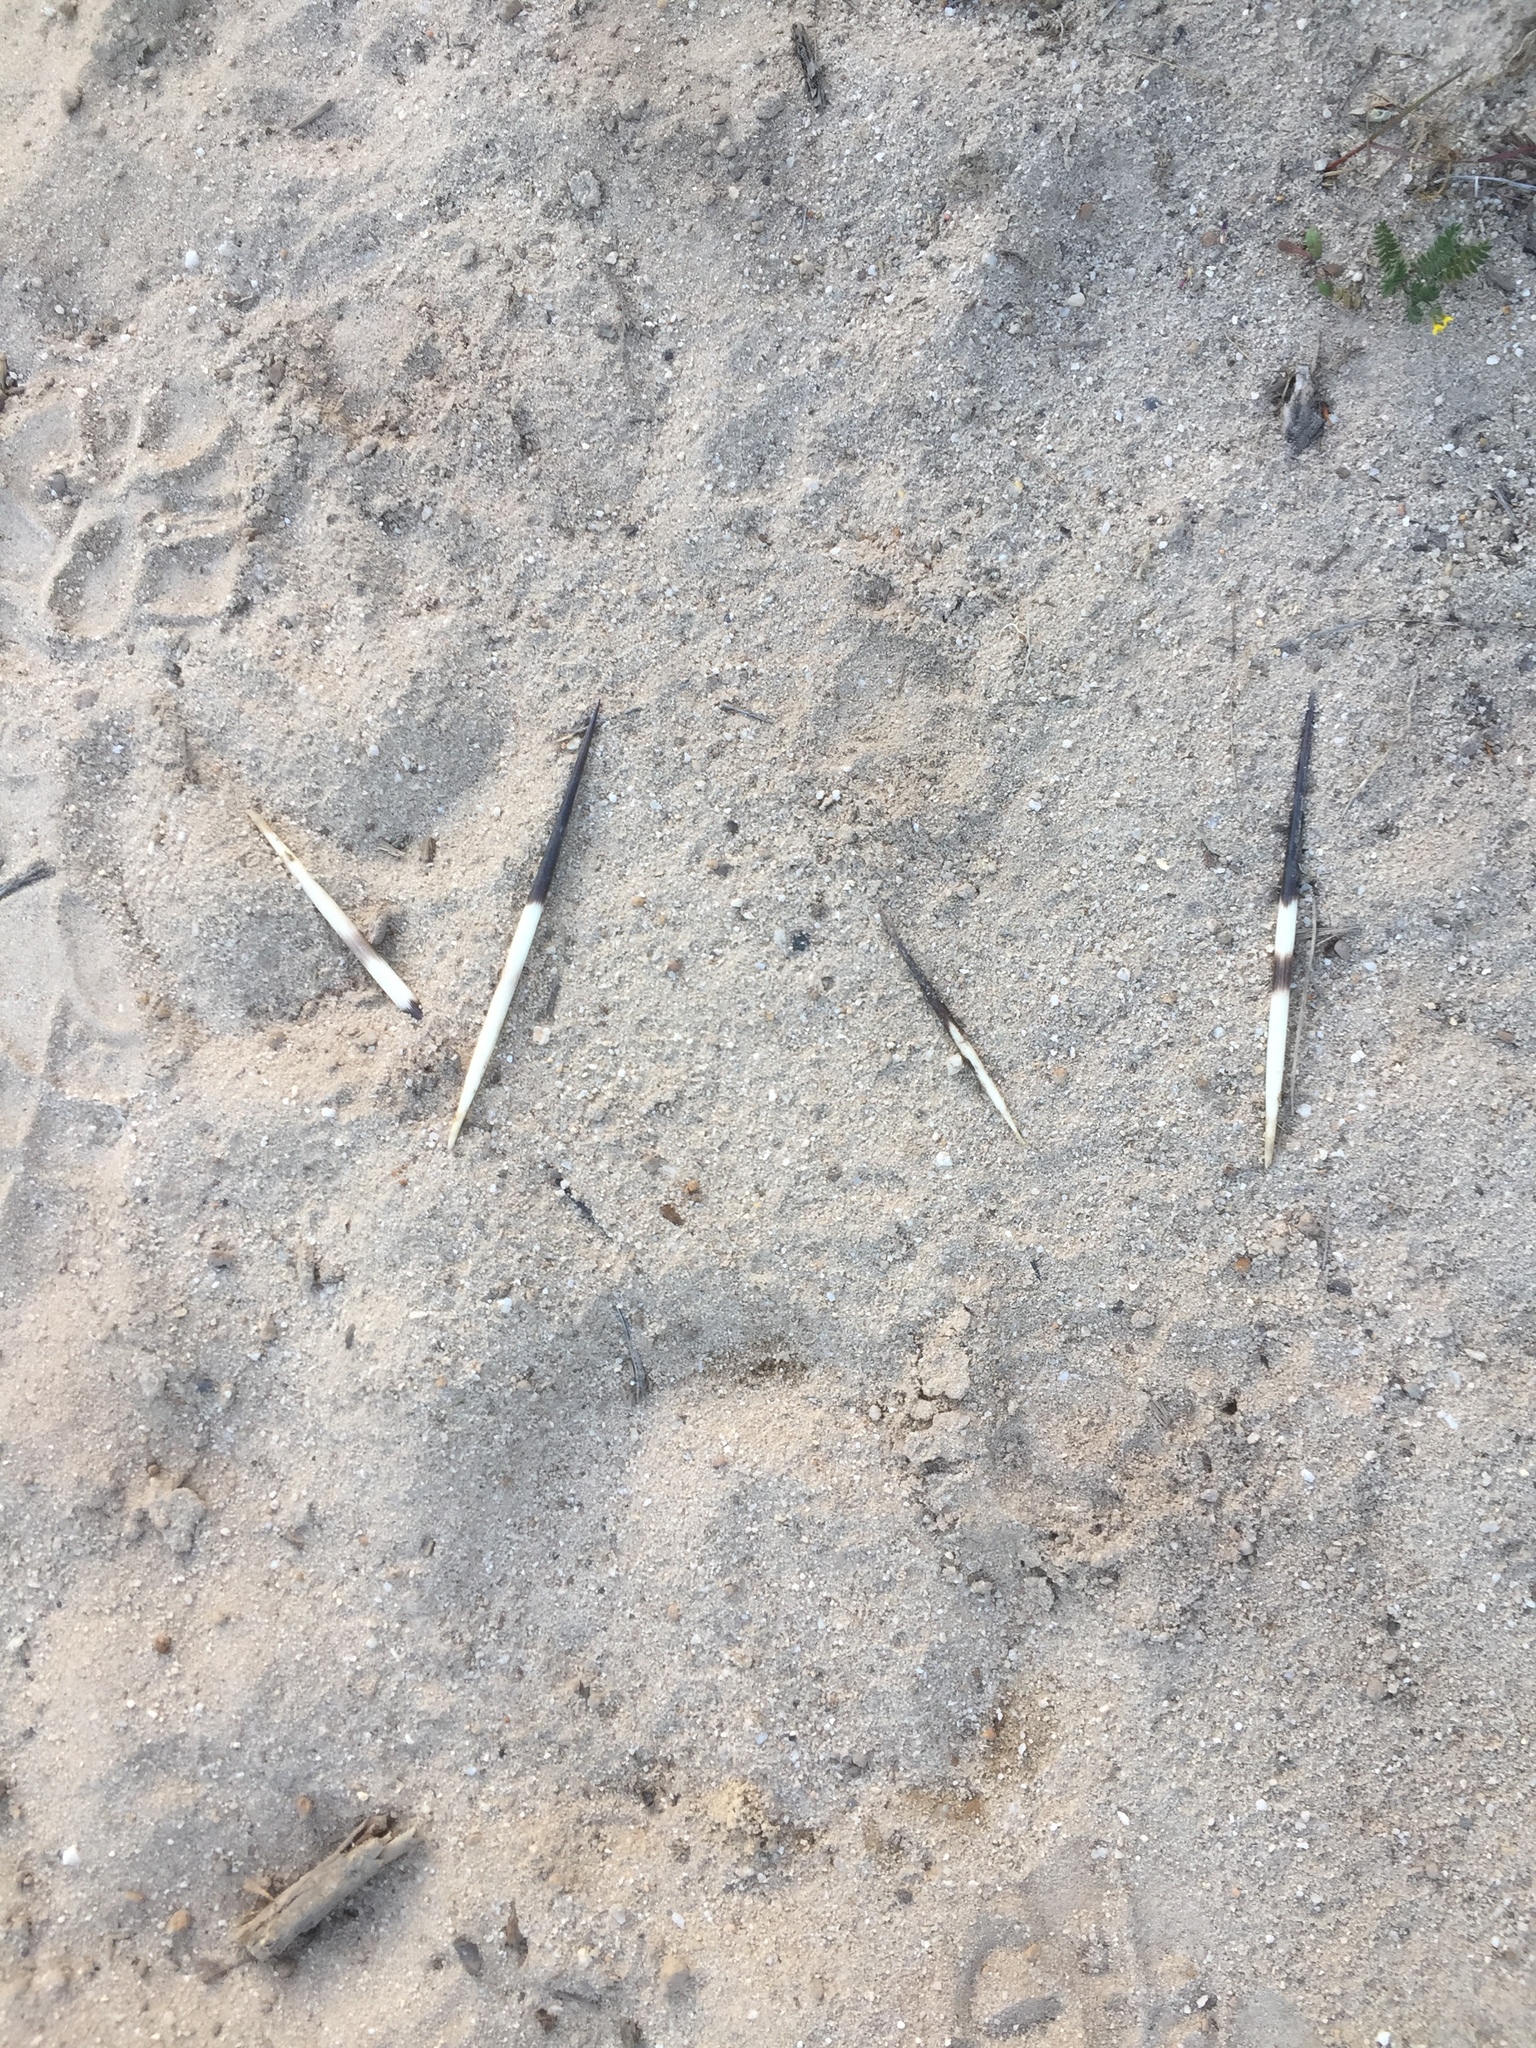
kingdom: Animalia
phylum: Chordata
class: Mammalia
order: Rodentia
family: Hystricidae
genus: Hystrix
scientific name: Hystrix africaeaustralis
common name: Cape porcupine
